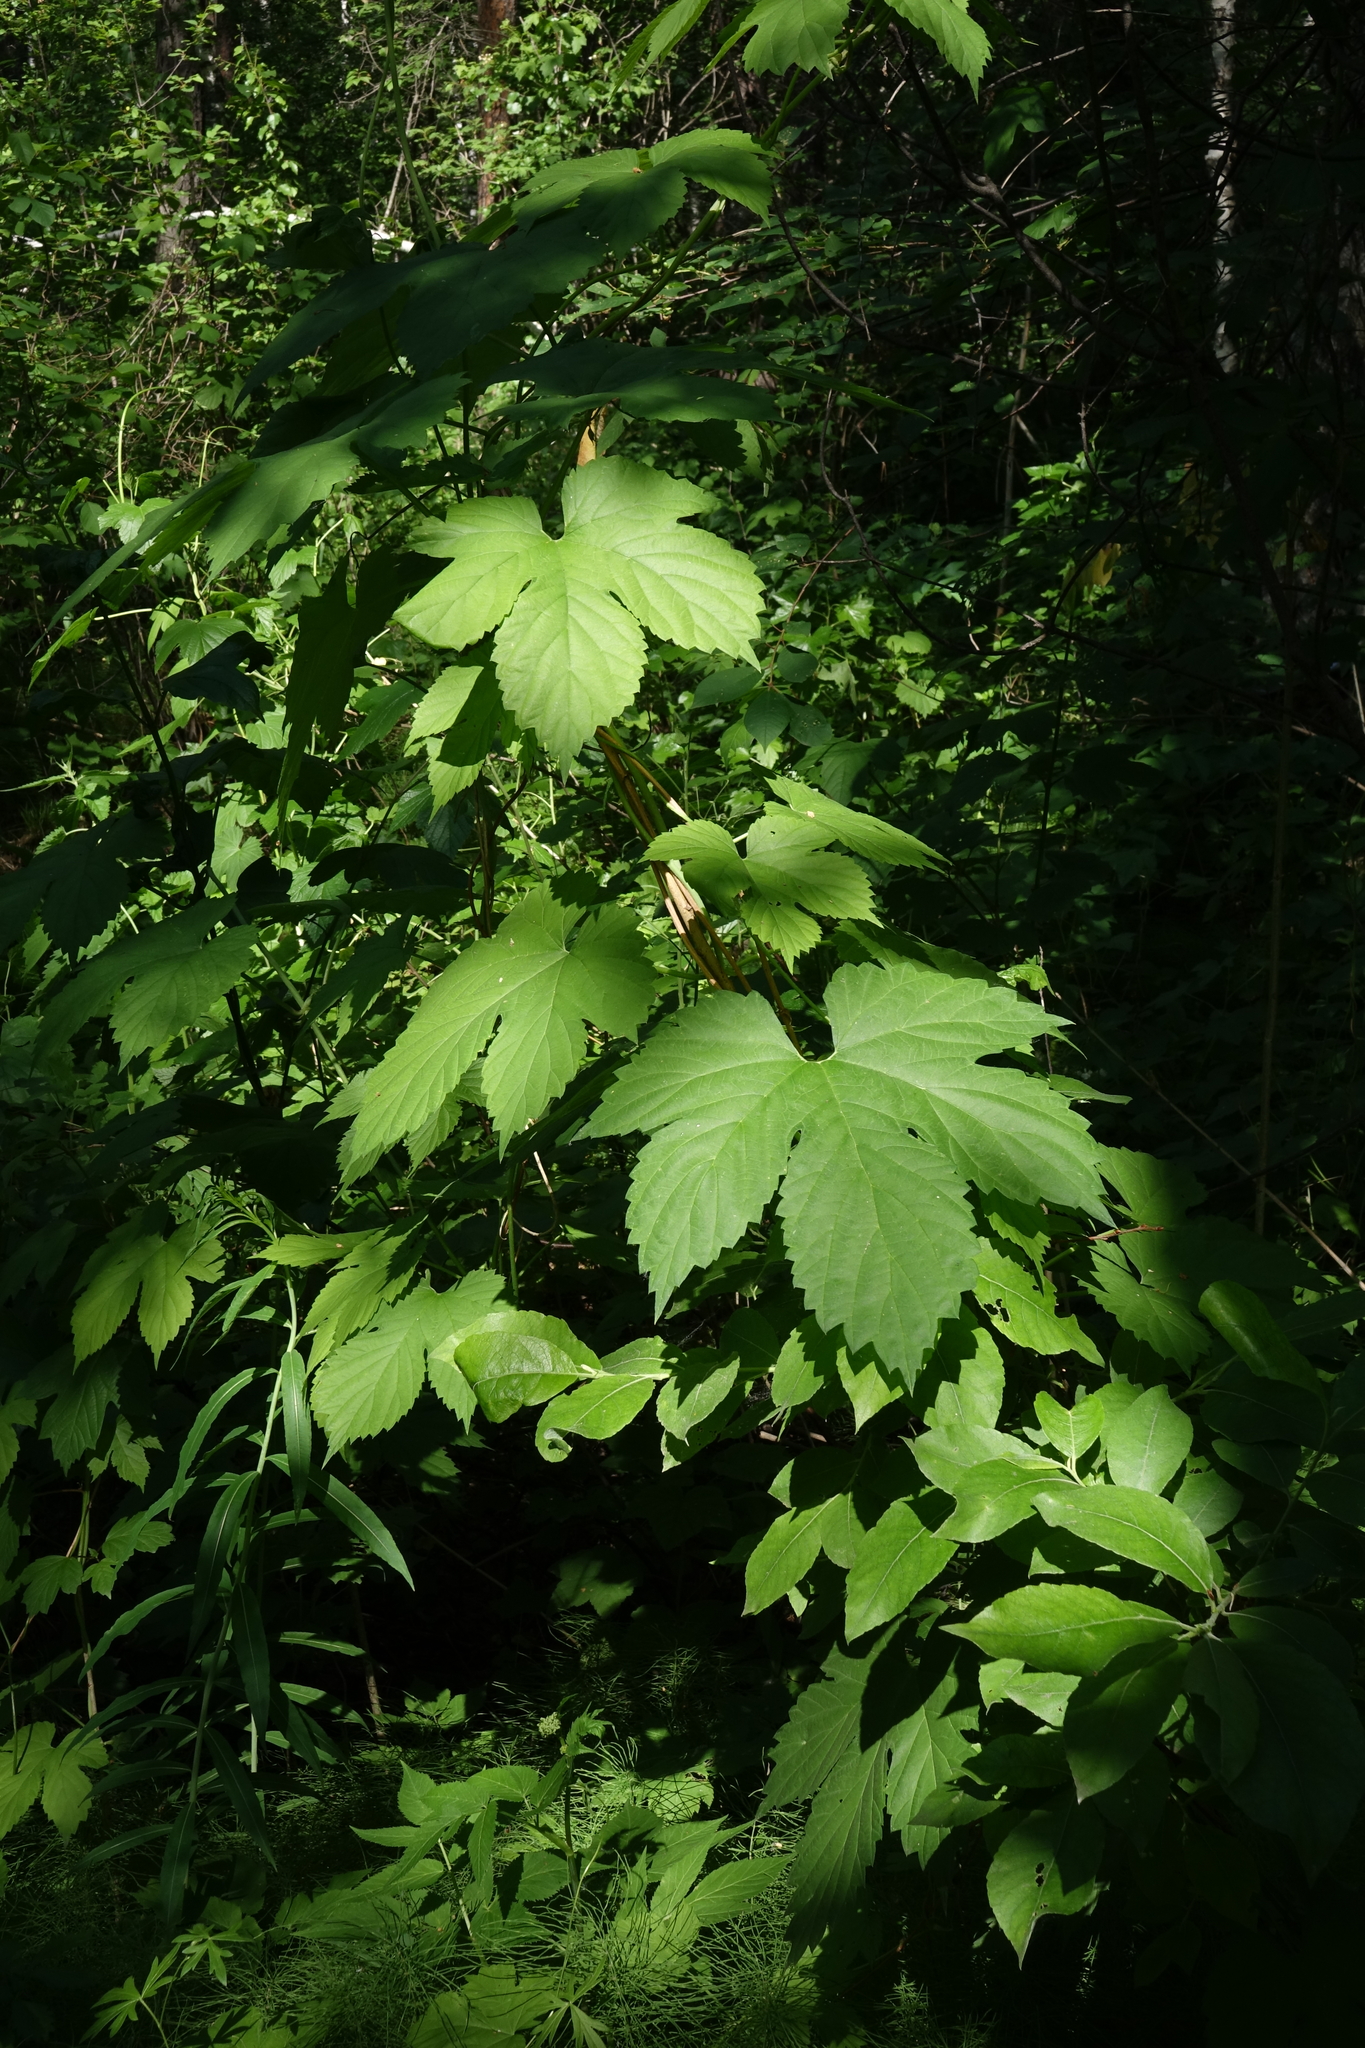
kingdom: Plantae
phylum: Tracheophyta
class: Magnoliopsida
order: Rosales
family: Cannabaceae
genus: Humulus
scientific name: Humulus lupulus
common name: Hop
